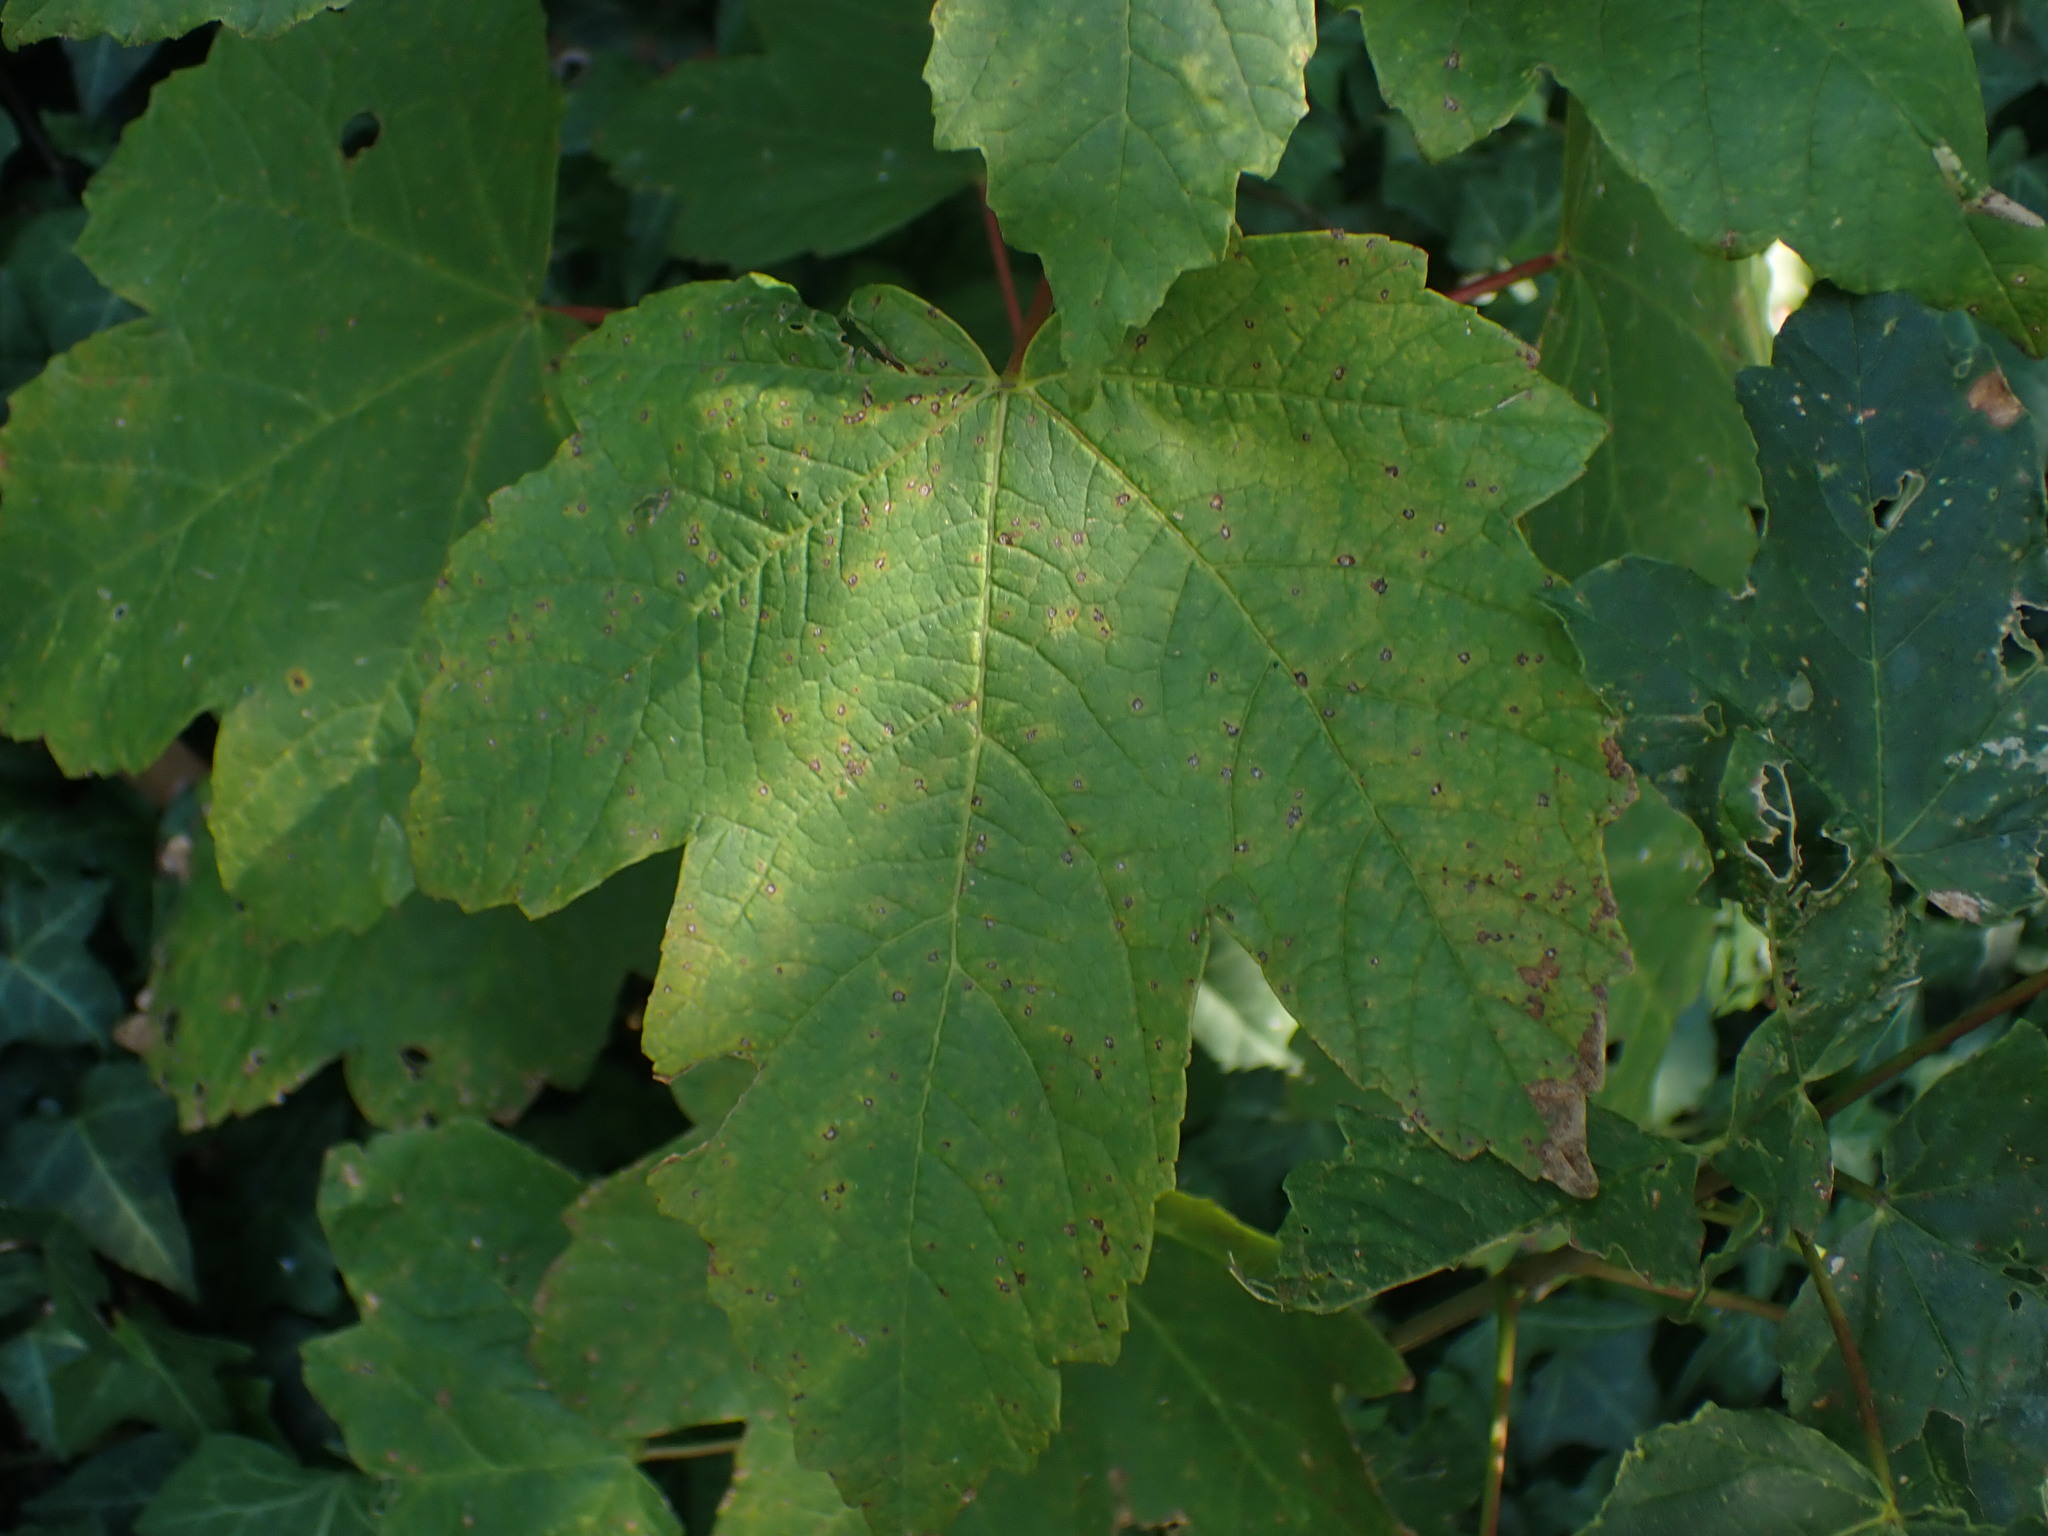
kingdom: Plantae
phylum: Tracheophyta
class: Magnoliopsida
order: Sapindales
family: Sapindaceae
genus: Acer
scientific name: Acer pseudoplatanus
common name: Sycamore
